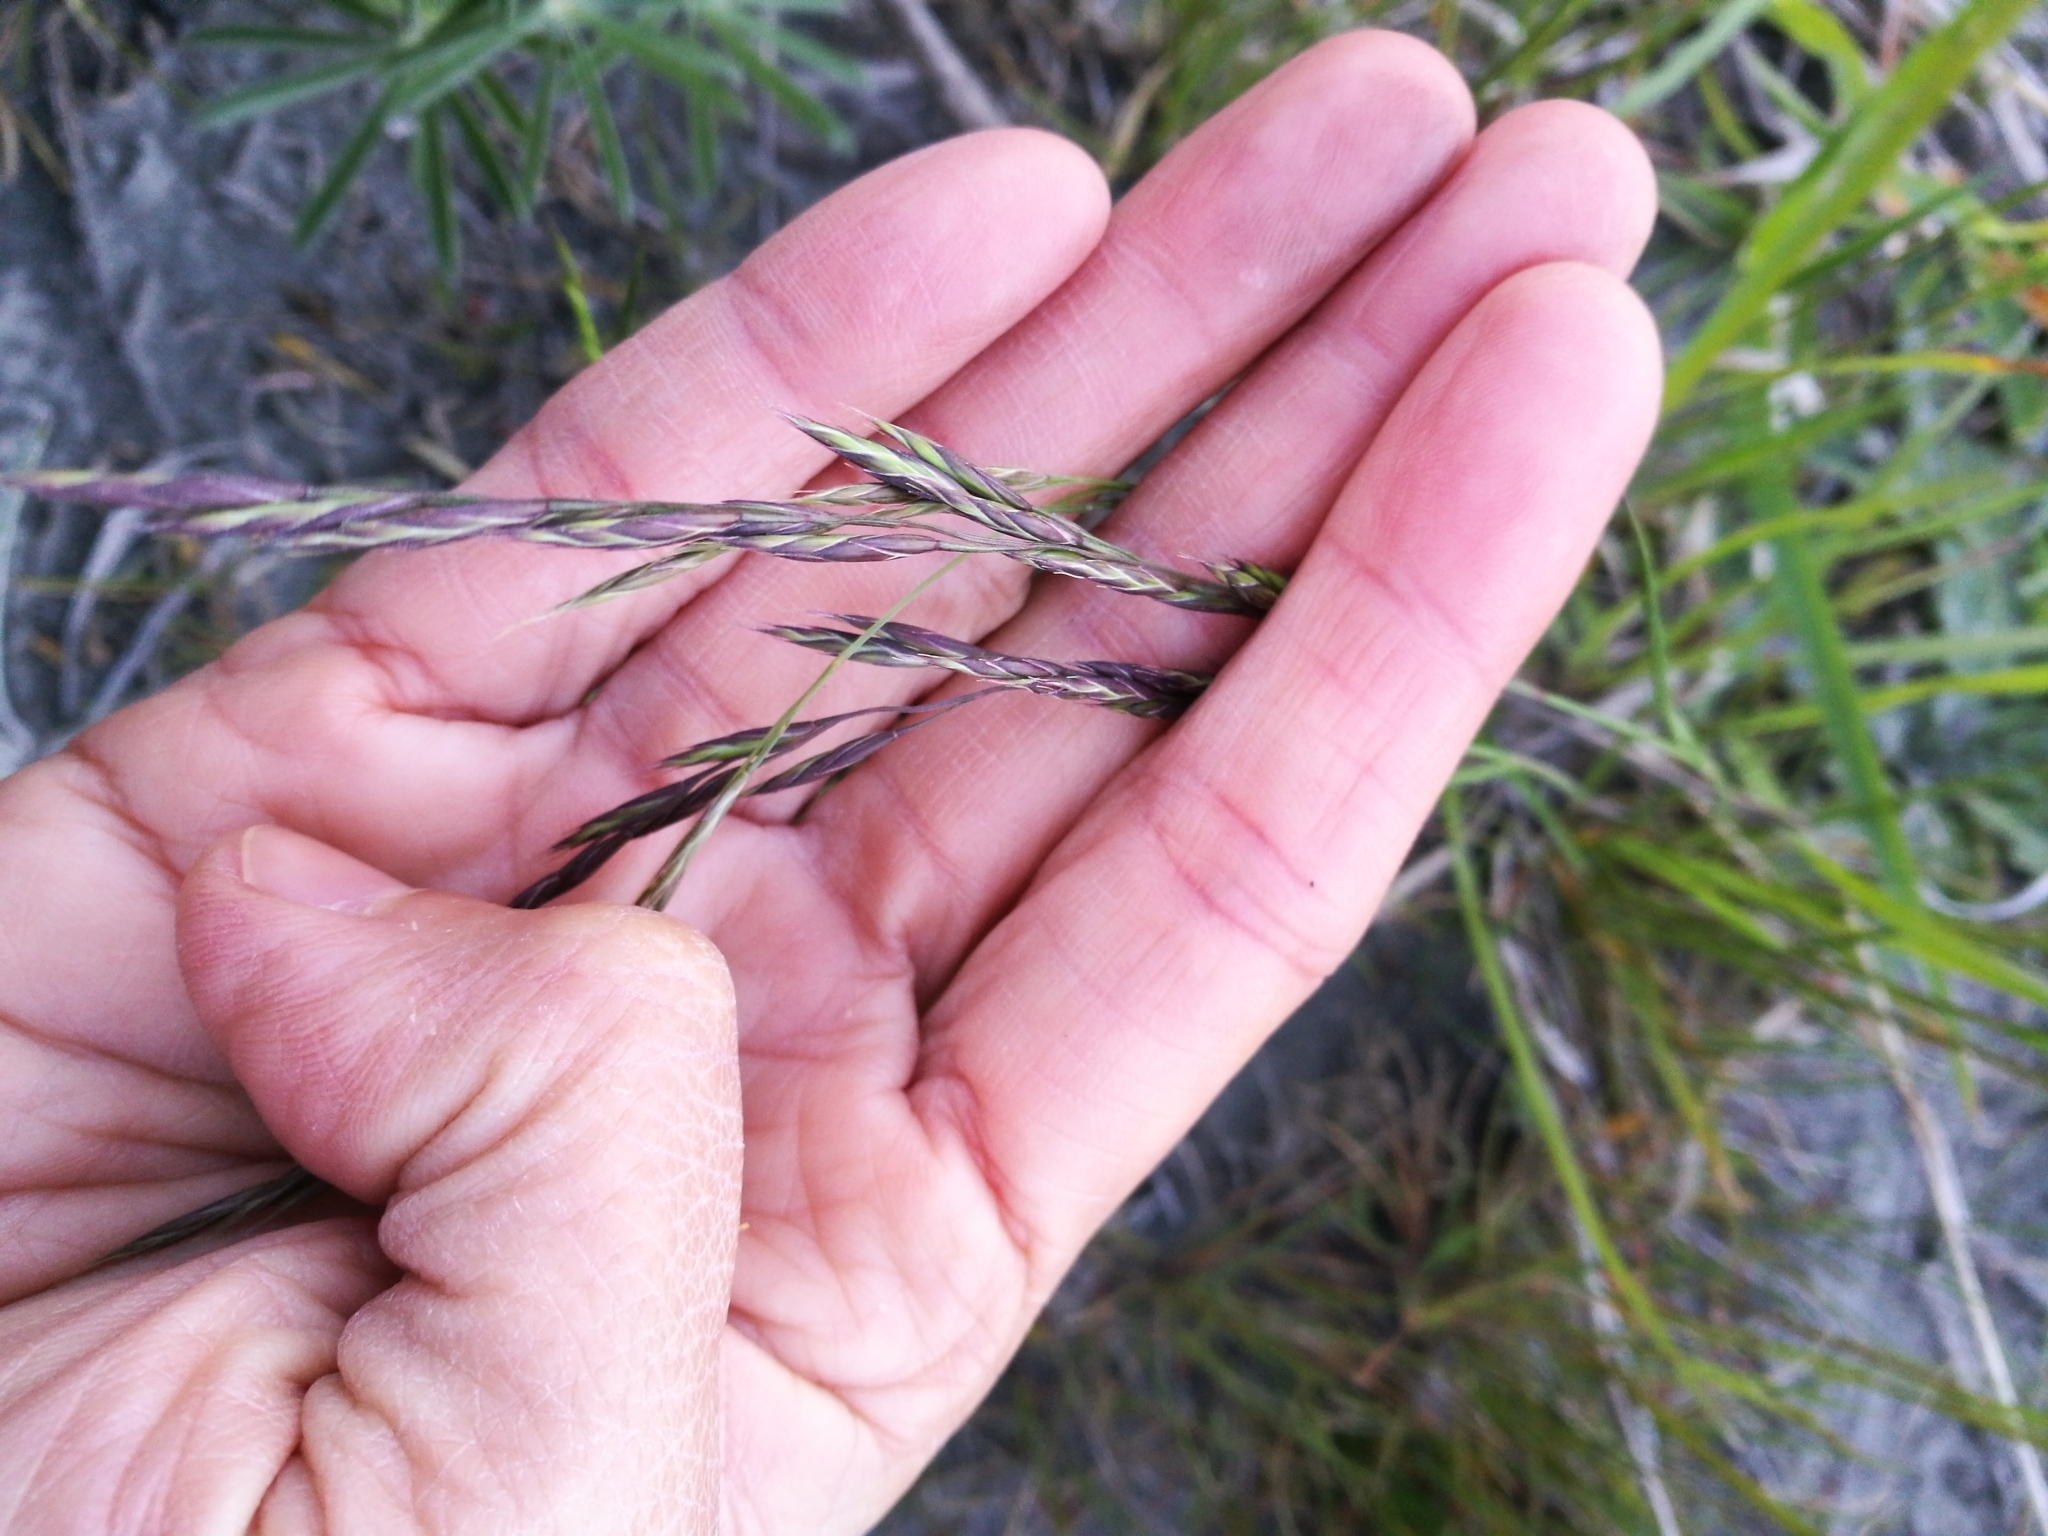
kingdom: Plantae
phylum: Tracheophyta
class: Liliopsida
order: Poales
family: Poaceae
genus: Lolium
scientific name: Lolium arundinaceum
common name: Reed fescue
